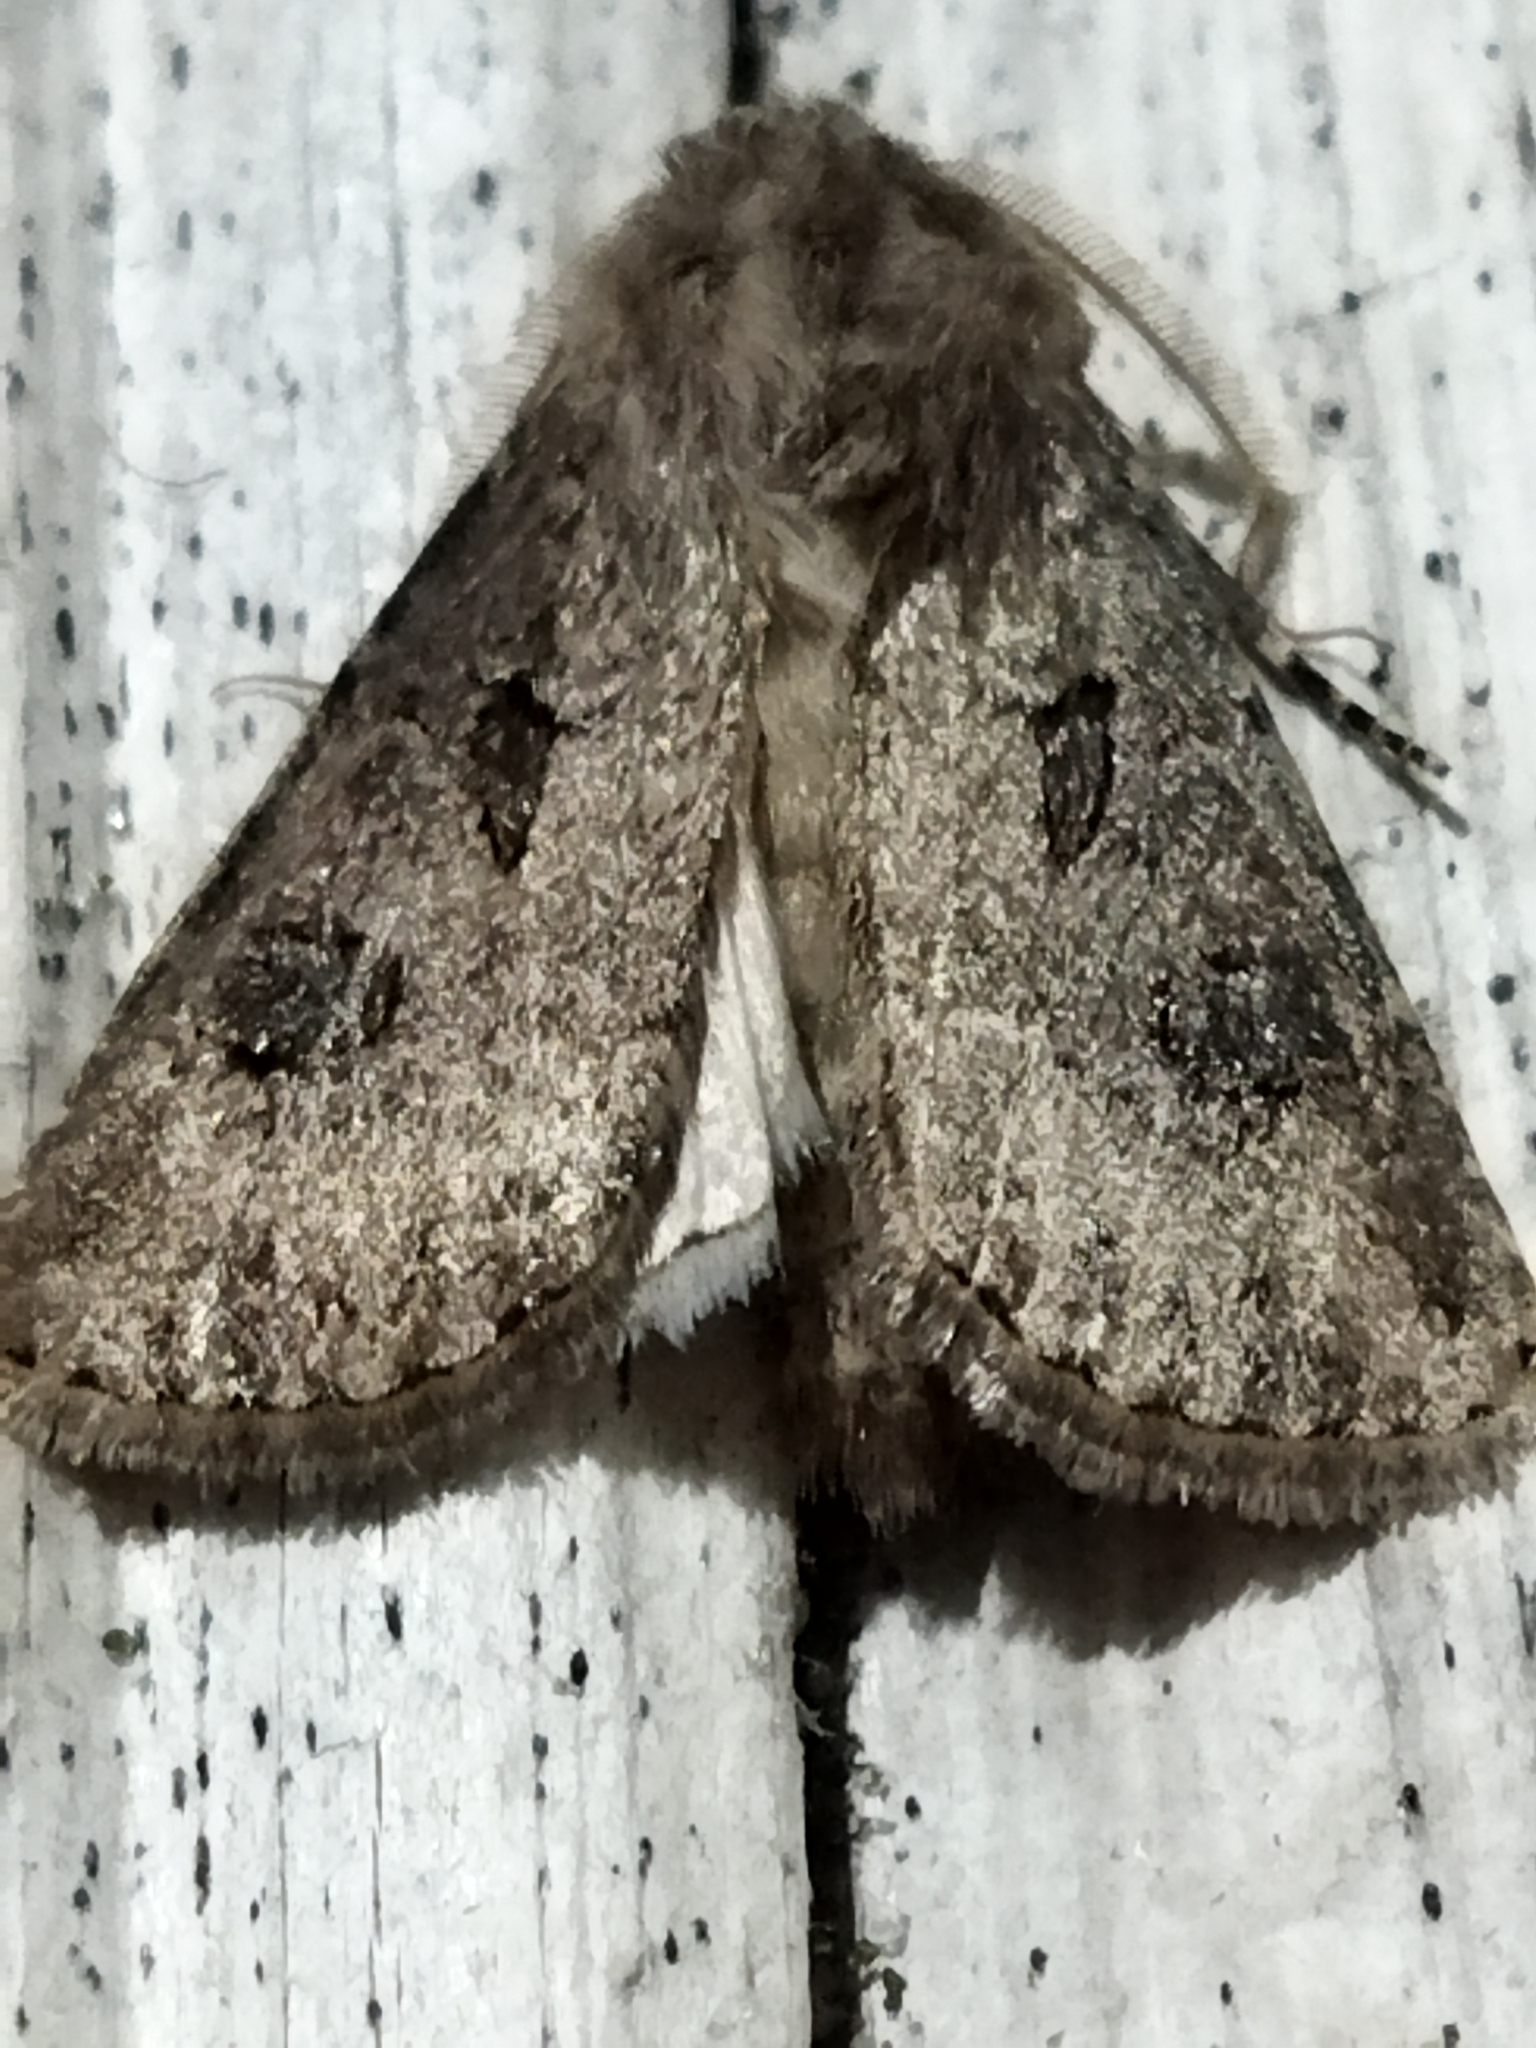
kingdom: Animalia
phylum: Arthropoda
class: Insecta
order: Lepidoptera
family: Noctuidae
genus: Agrotis
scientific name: Agrotis bigramma
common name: Great dart
